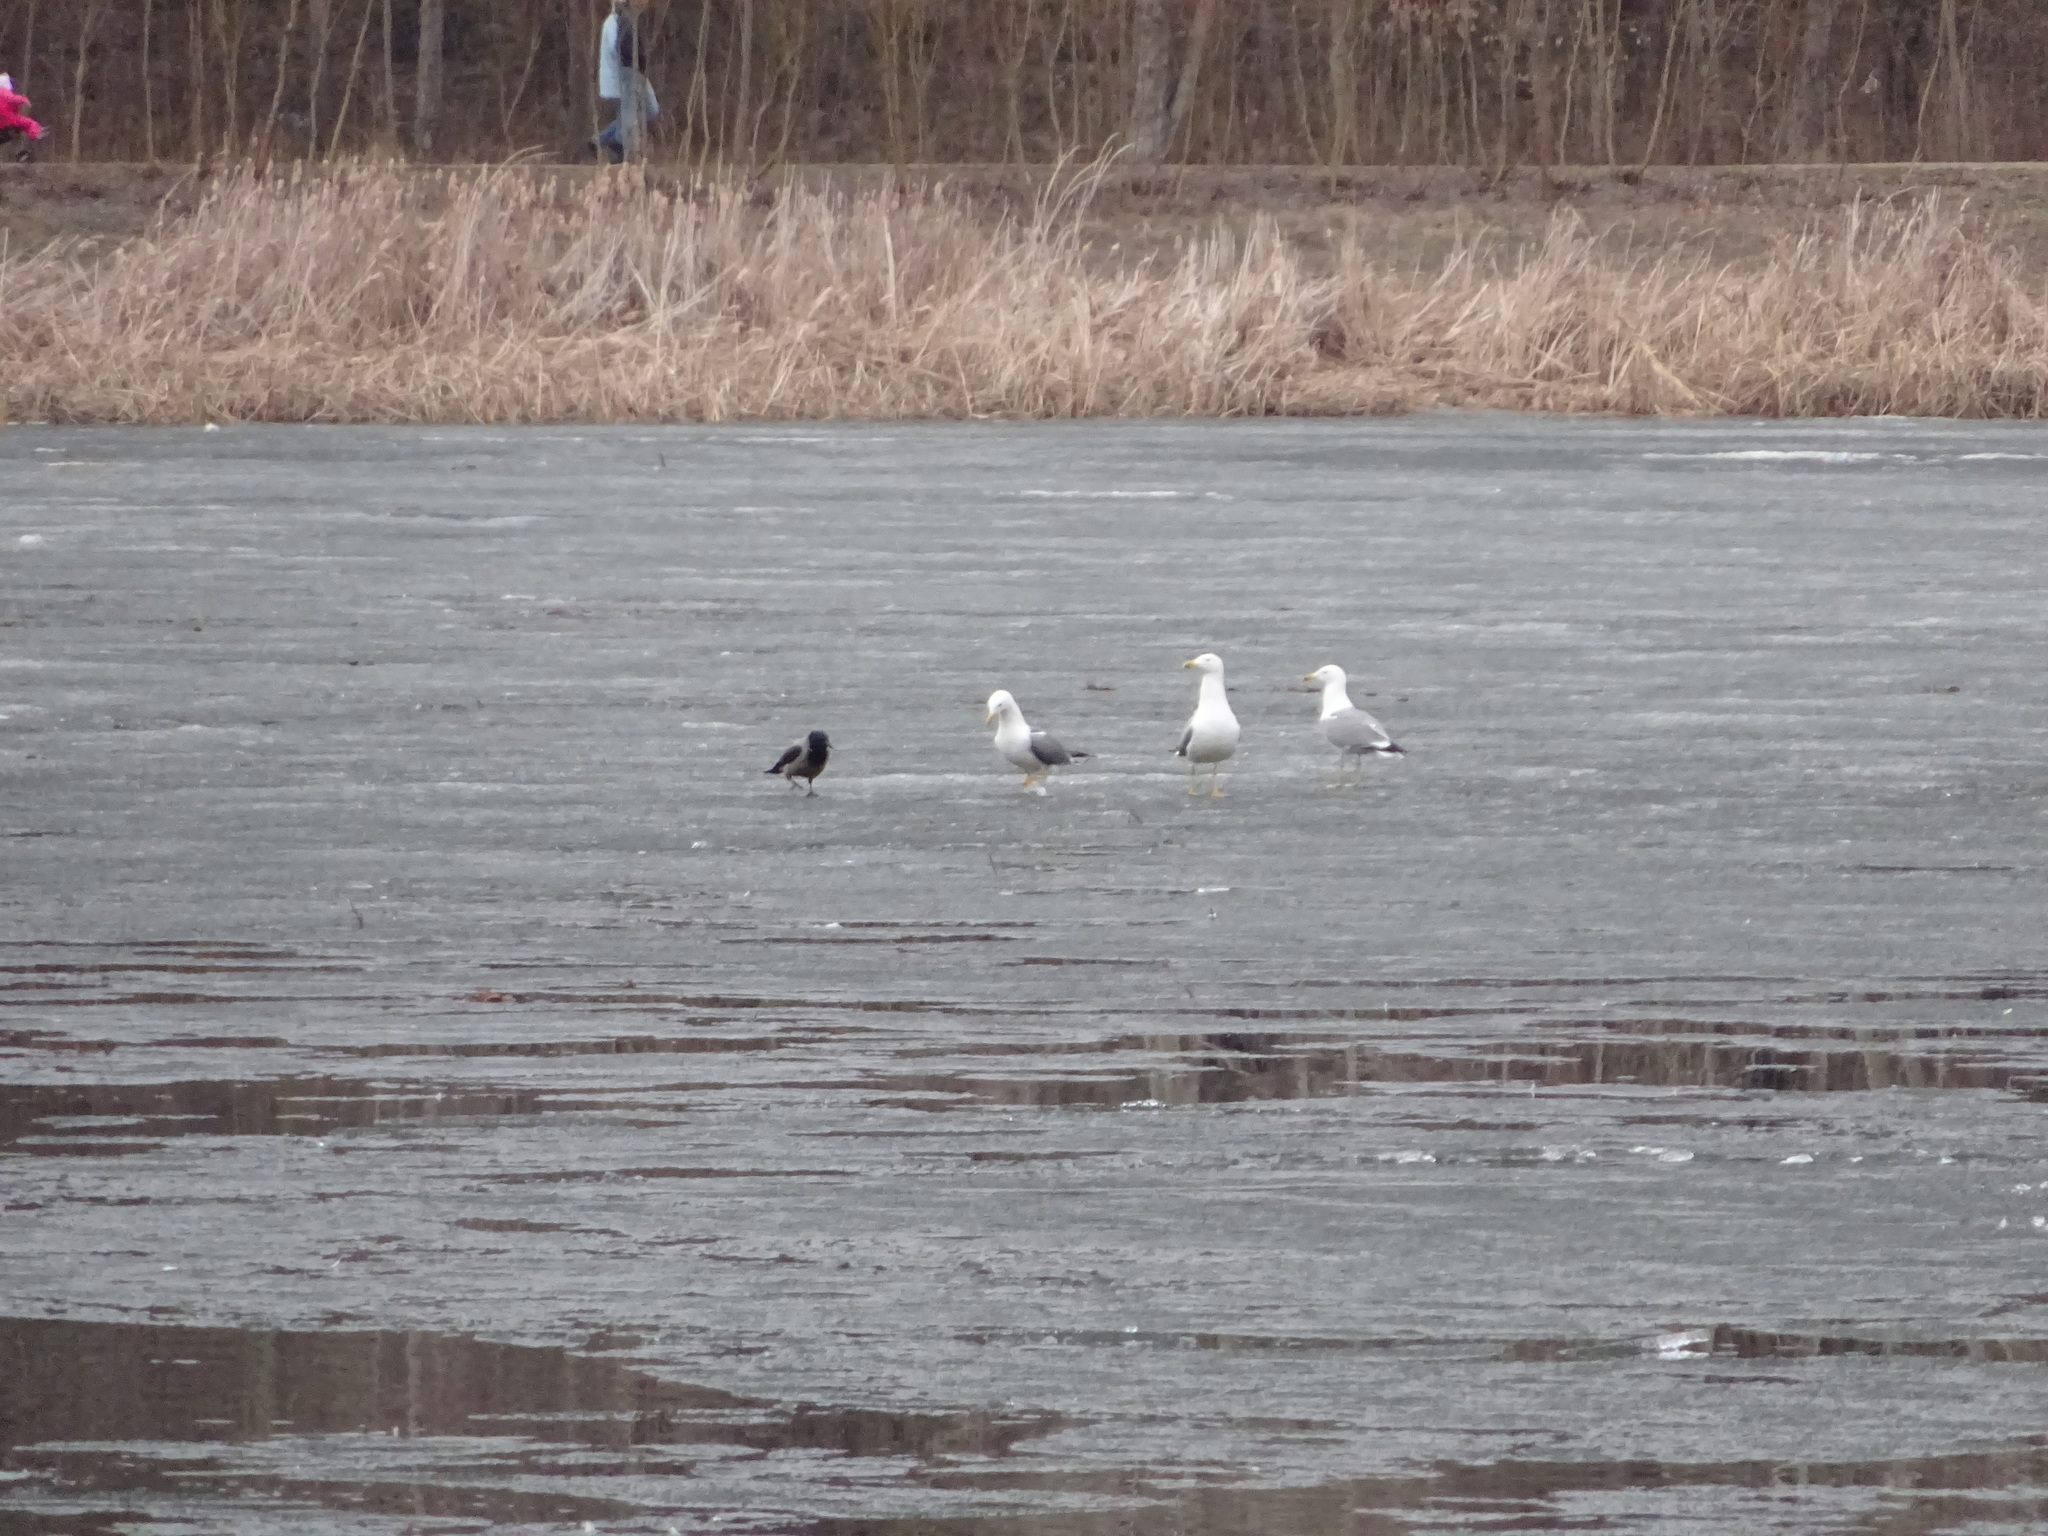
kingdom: Animalia
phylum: Chordata
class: Aves
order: Charadriiformes
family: Laridae
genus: Larus
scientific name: Larus fuscus
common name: Lesser black-backed gull
